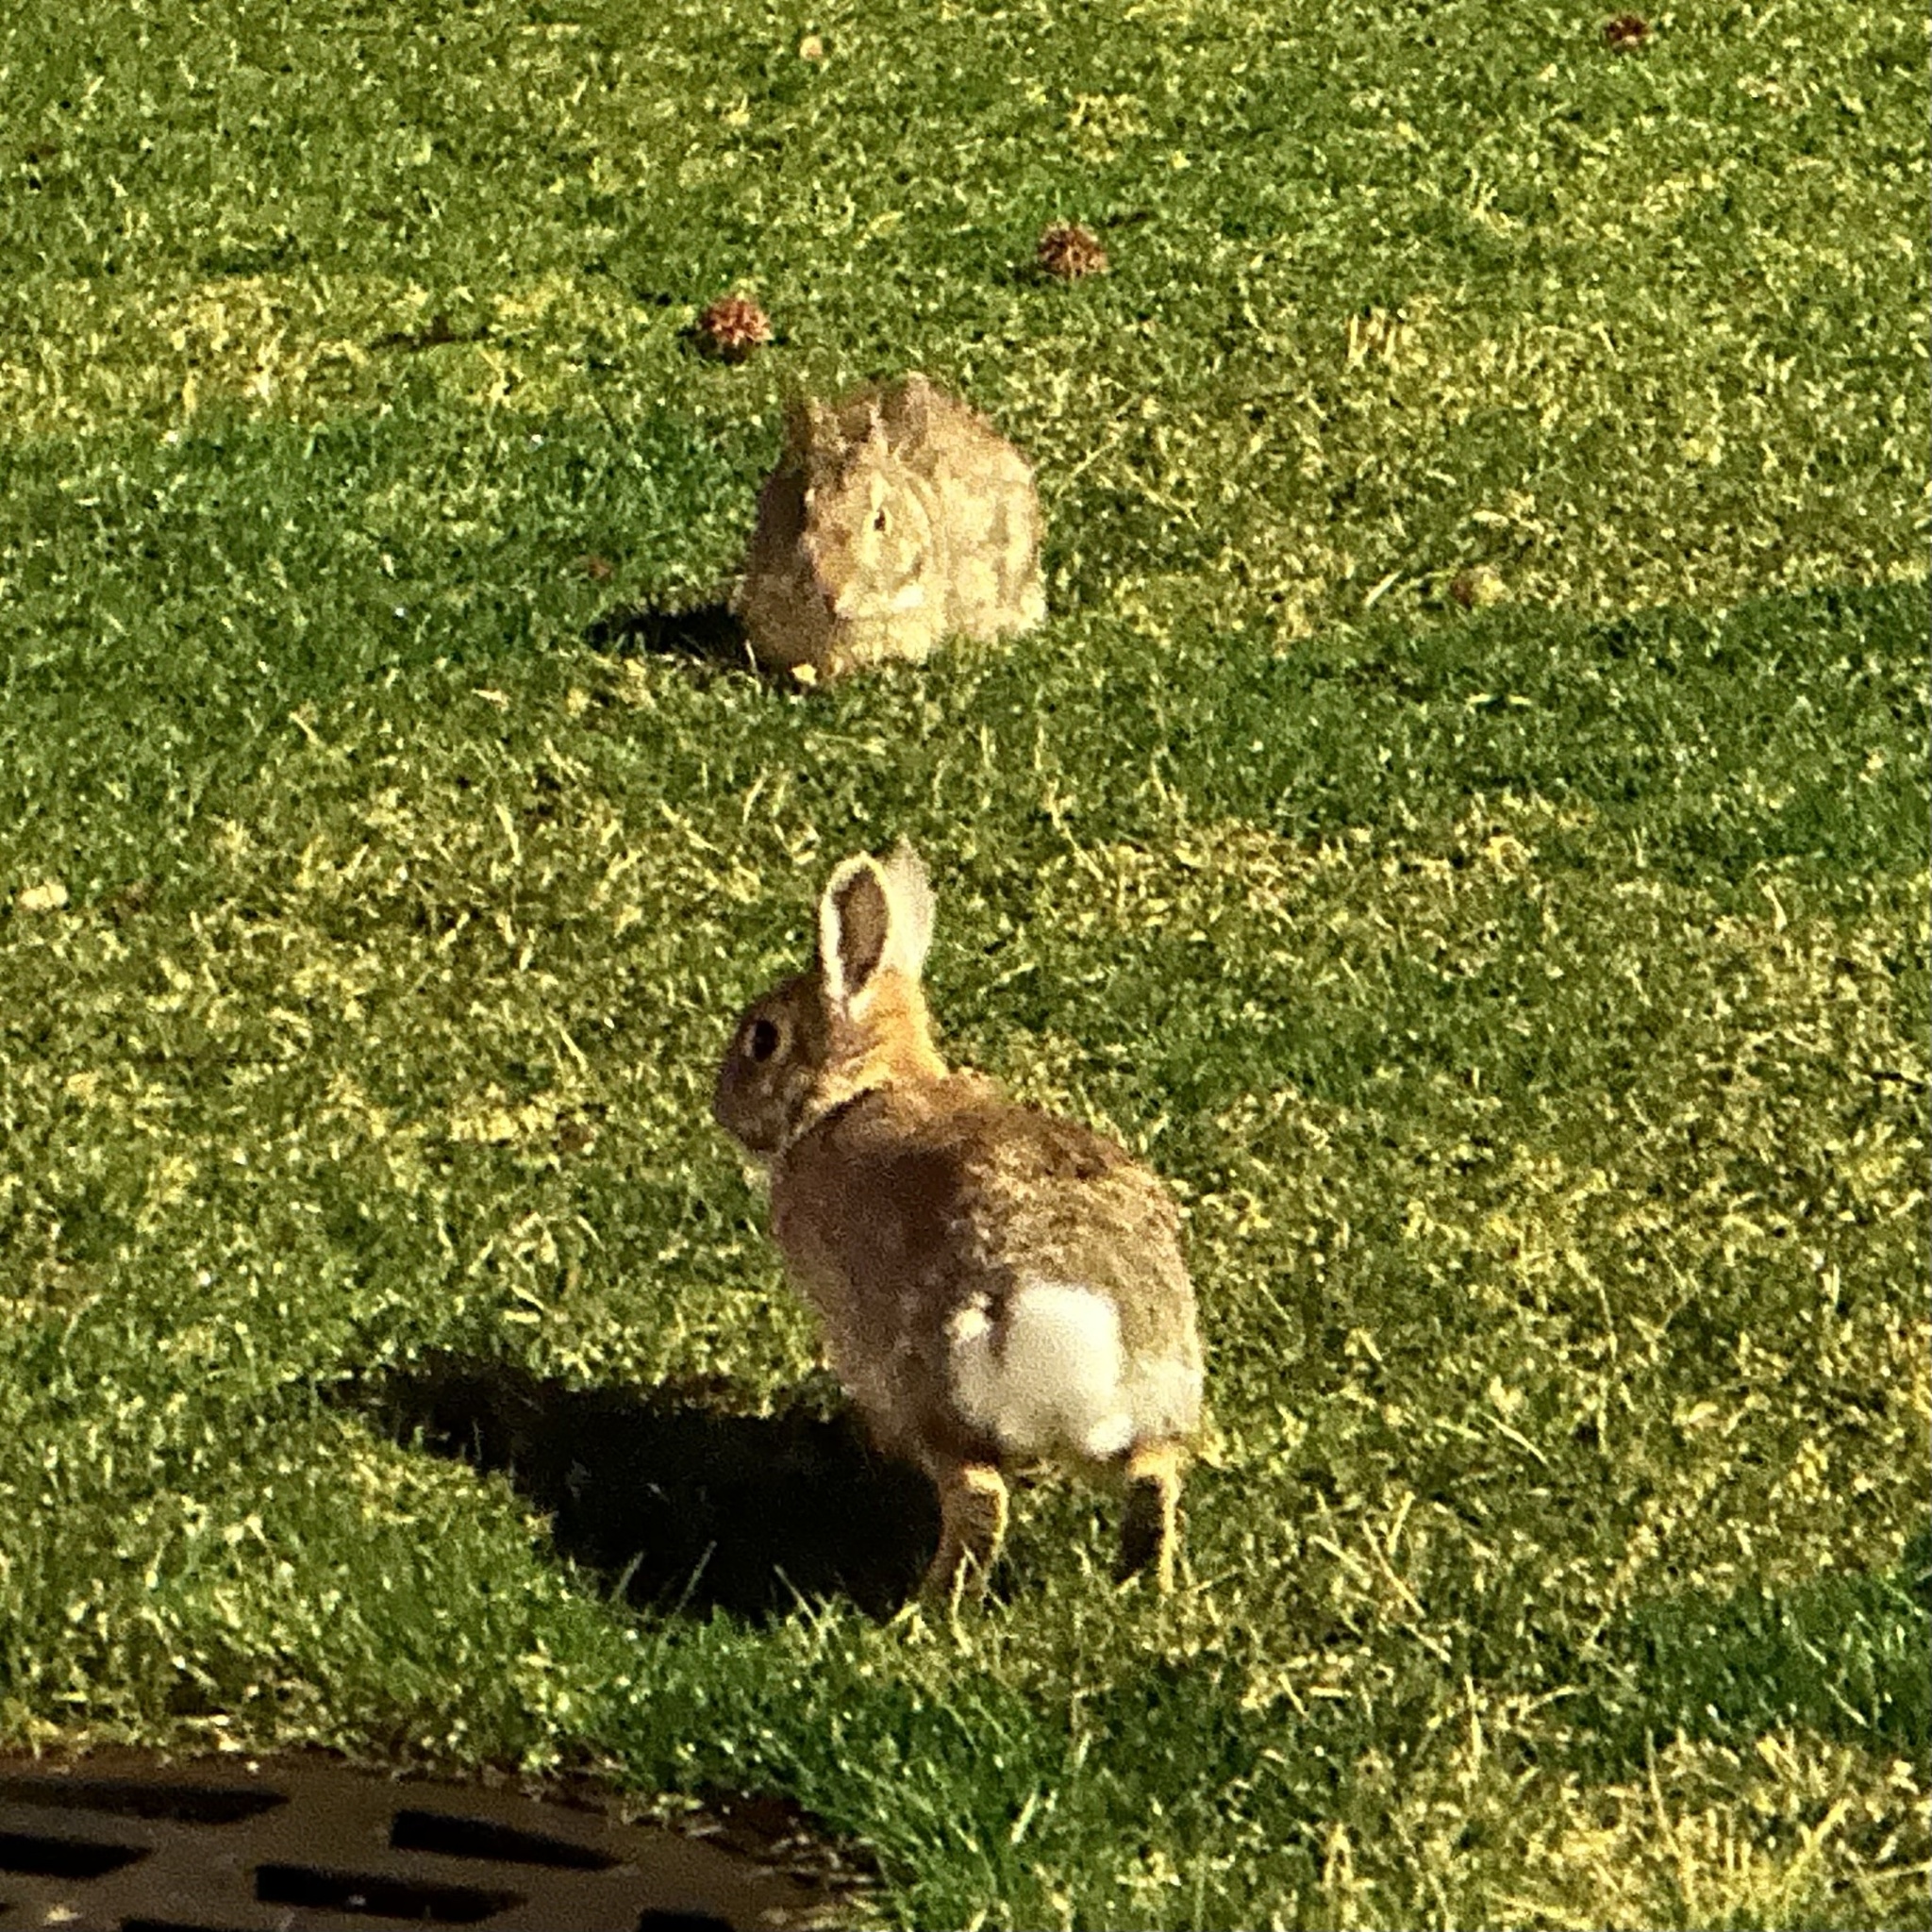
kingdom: Animalia
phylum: Chordata
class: Mammalia
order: Lagomorpha
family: Leporidae
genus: Sylvilagus
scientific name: Sylvilagus floridanus
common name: Eastern cottontail
